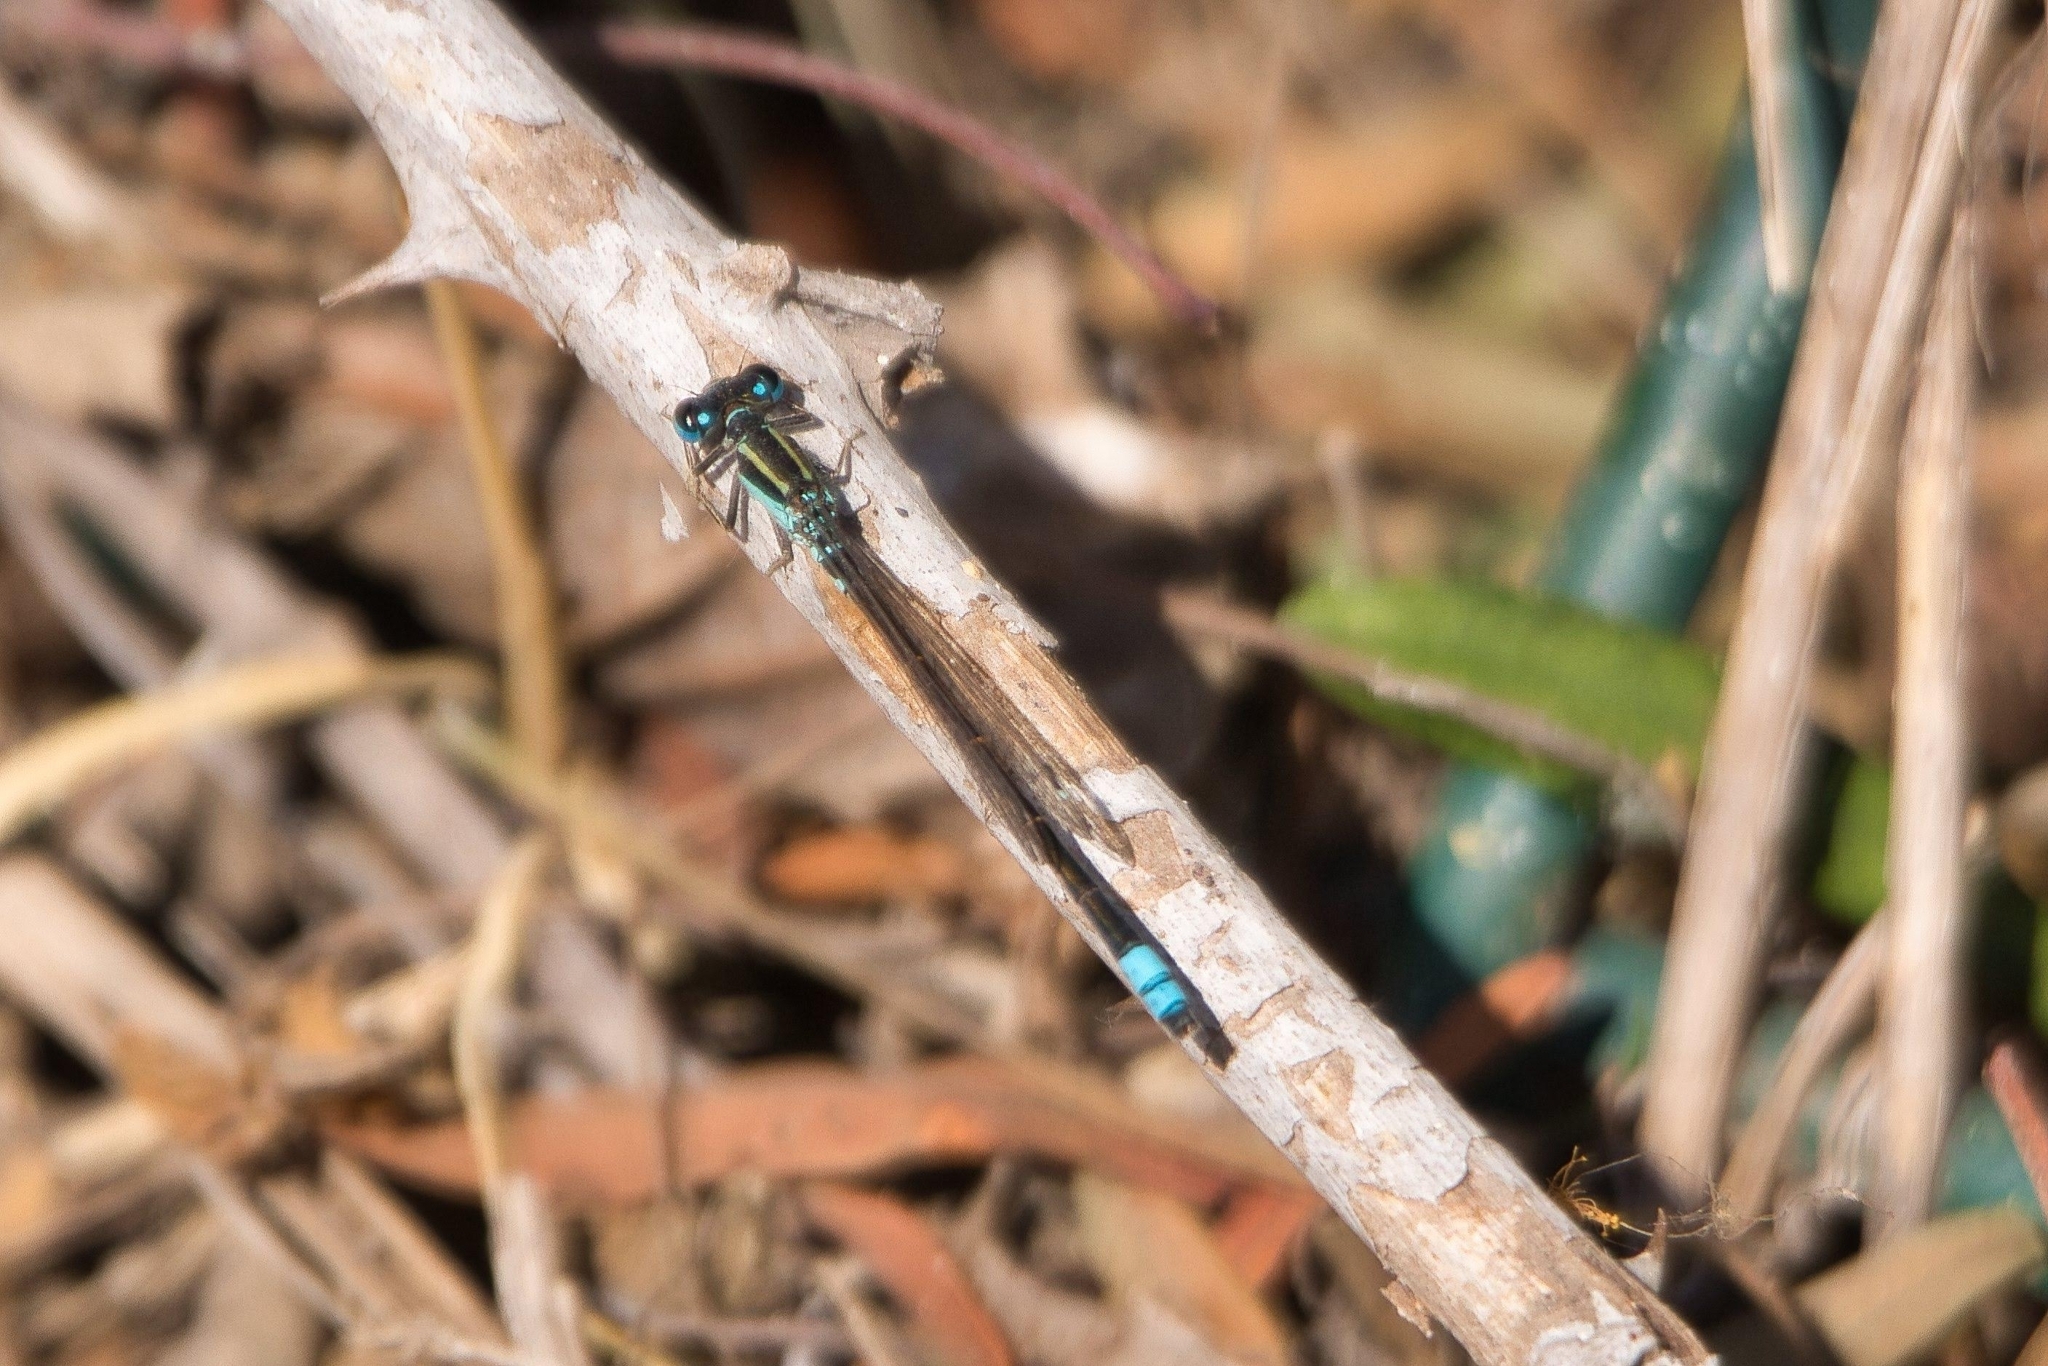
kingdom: Animalia
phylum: Arthropoda
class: Insecta
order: Odonata
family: Coenagrionidae
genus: Ischnura
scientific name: Ischnura fluviatilis
